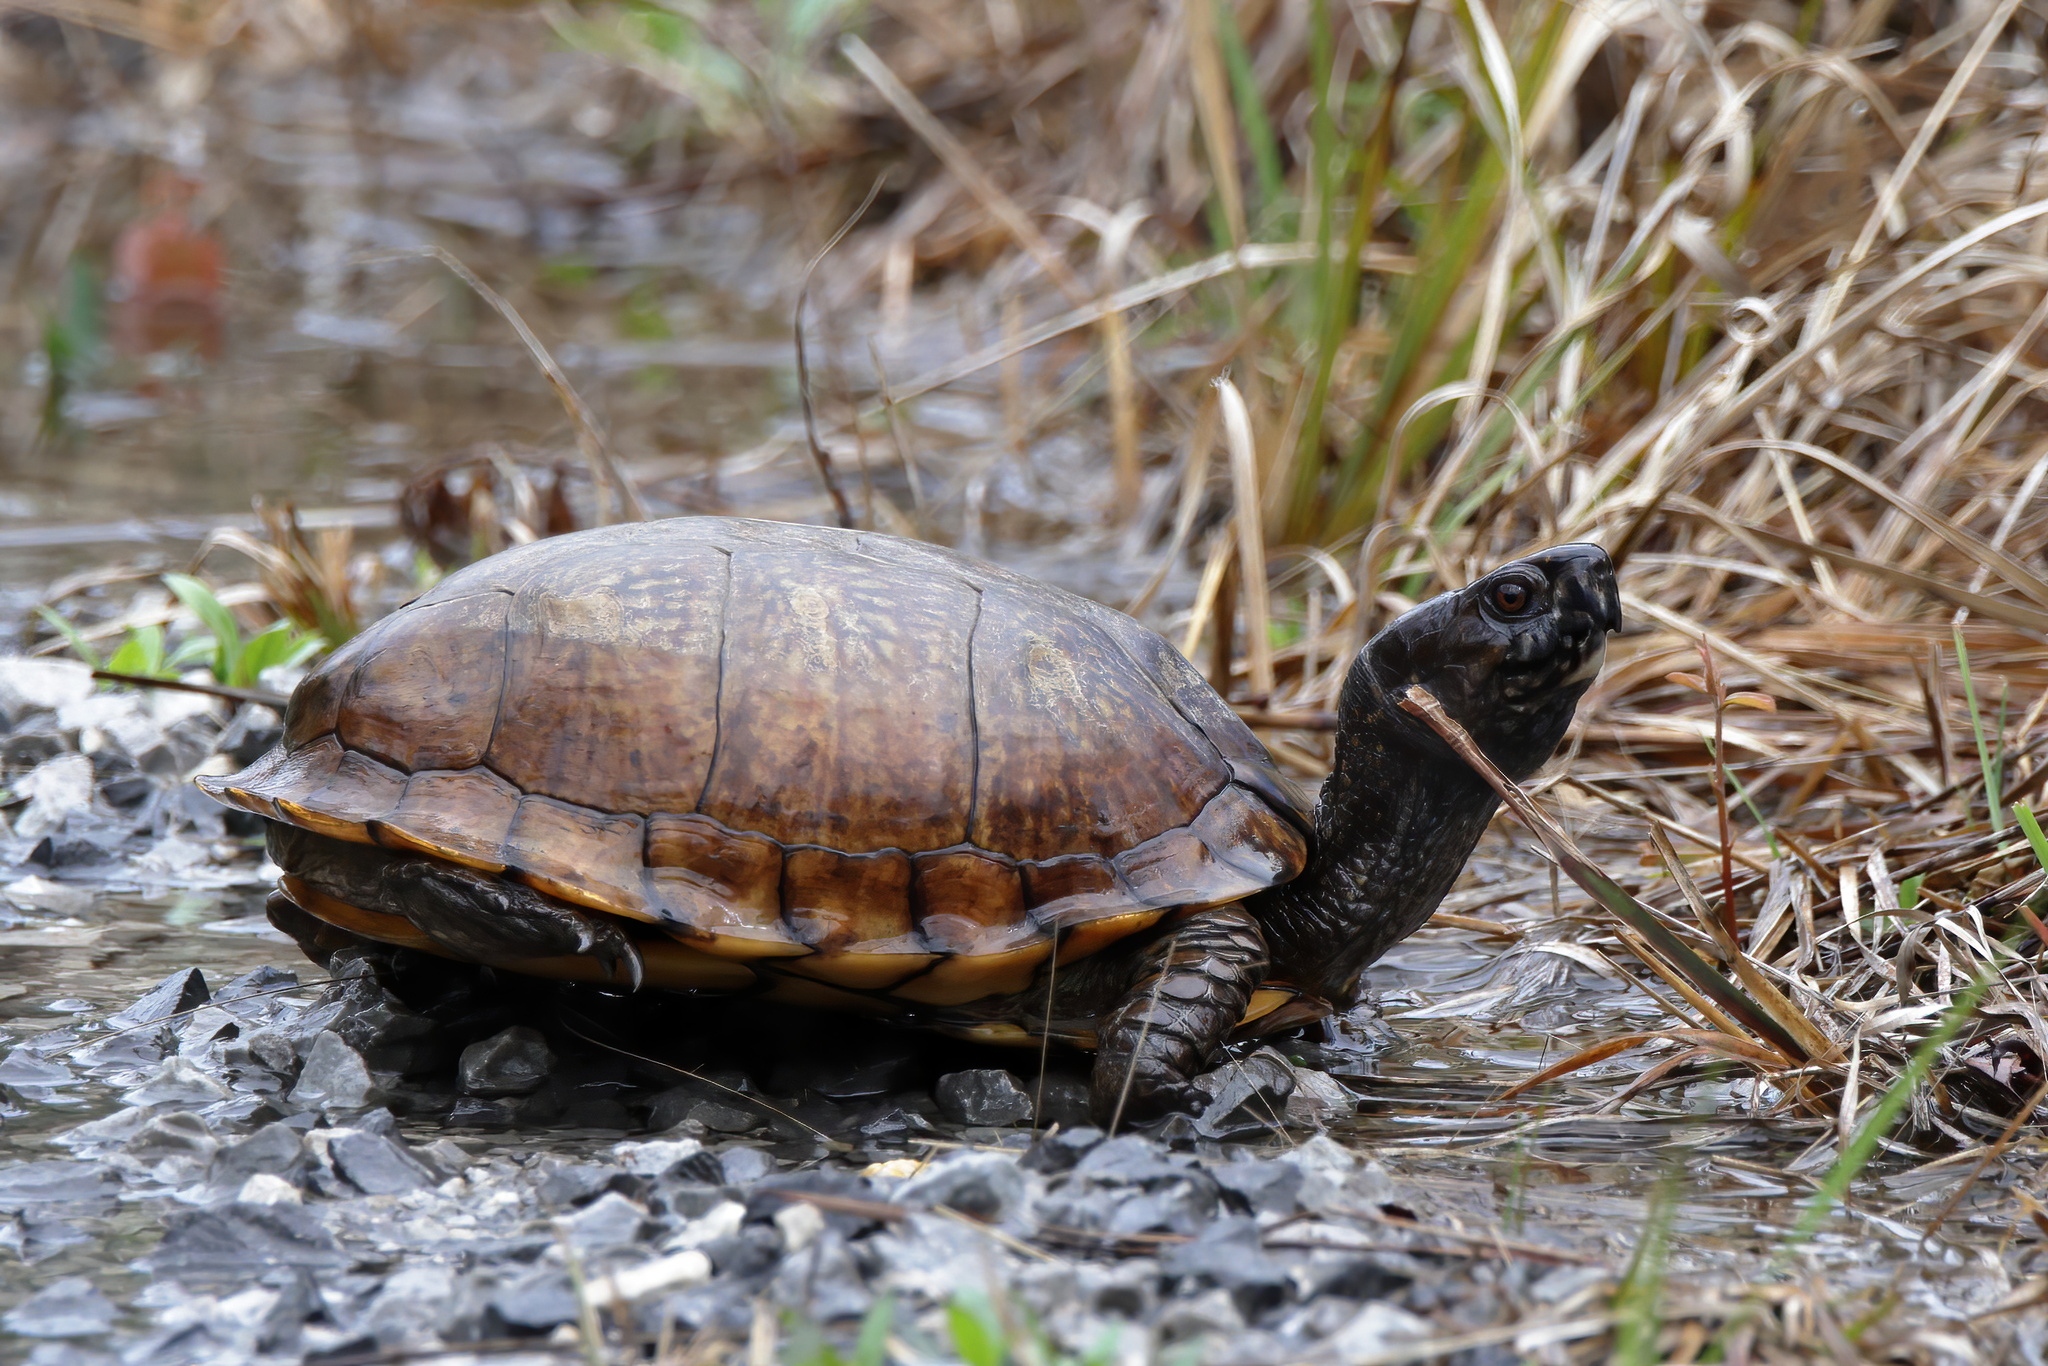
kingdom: Animalia
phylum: Chordata
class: Testudines
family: Emydidae
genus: Terrapene
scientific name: Terrapene carolina
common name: Common box turtle
